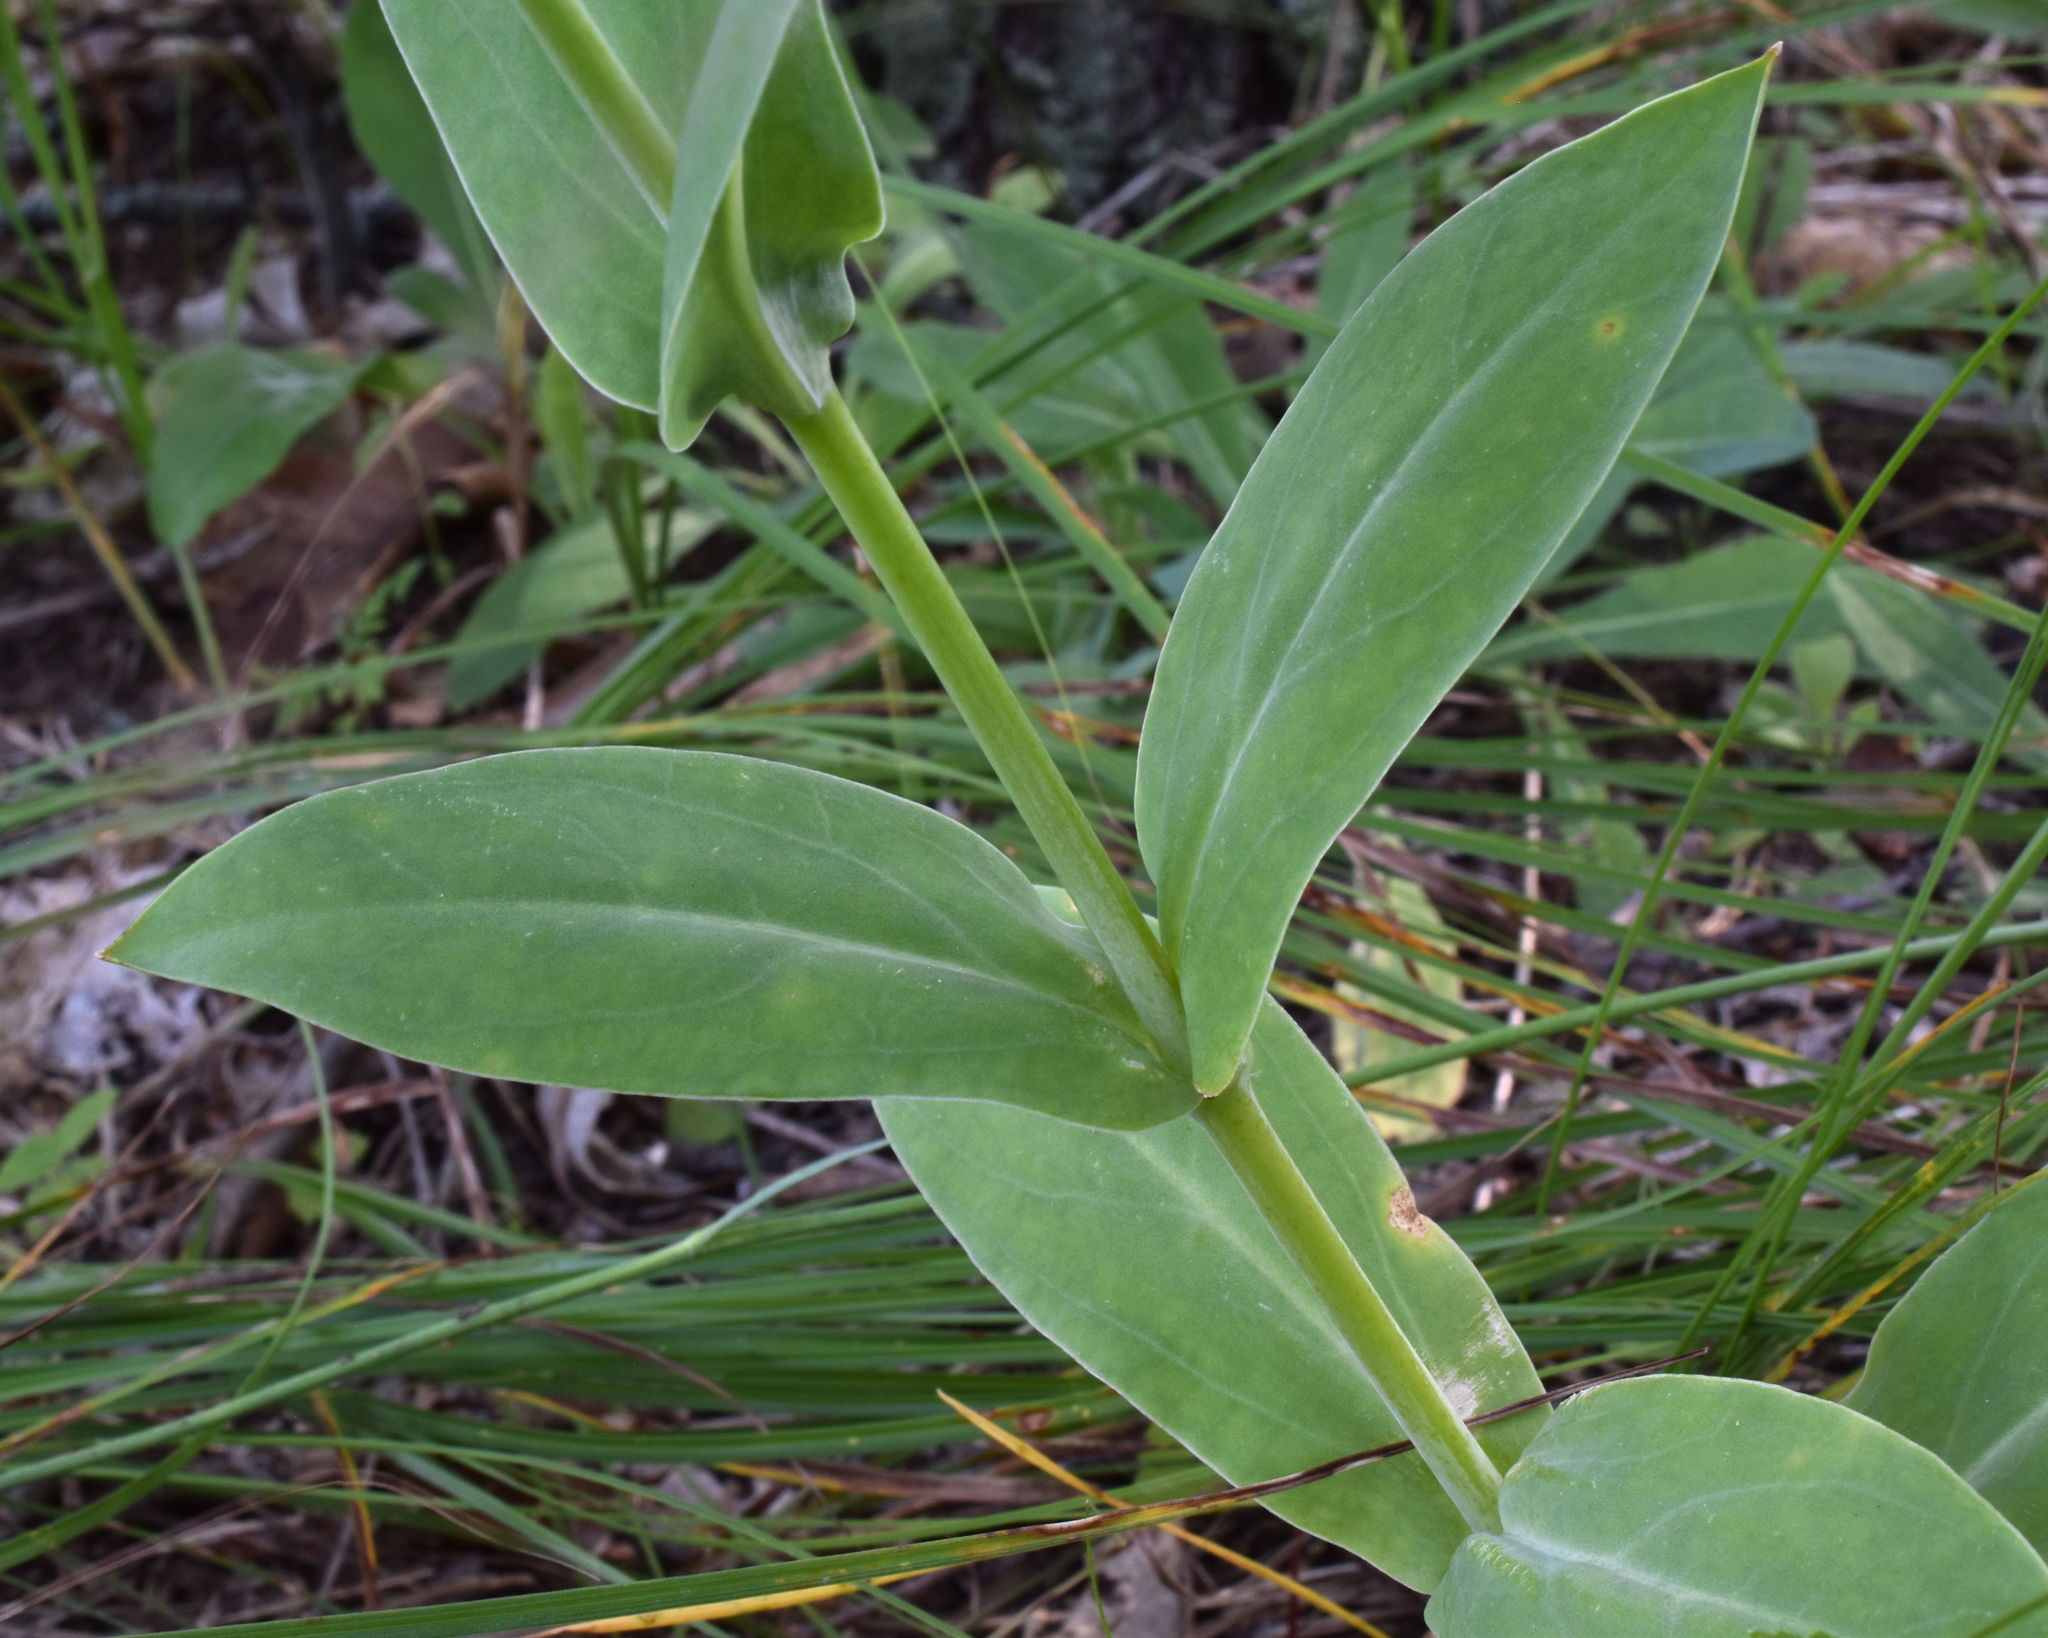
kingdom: Plantae
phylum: Tracheophyta
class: Magnoliopsida
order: Caryophyllales
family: Caryophyllaceae
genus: Silene
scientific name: Silene csereii
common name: Balkan catchfly
